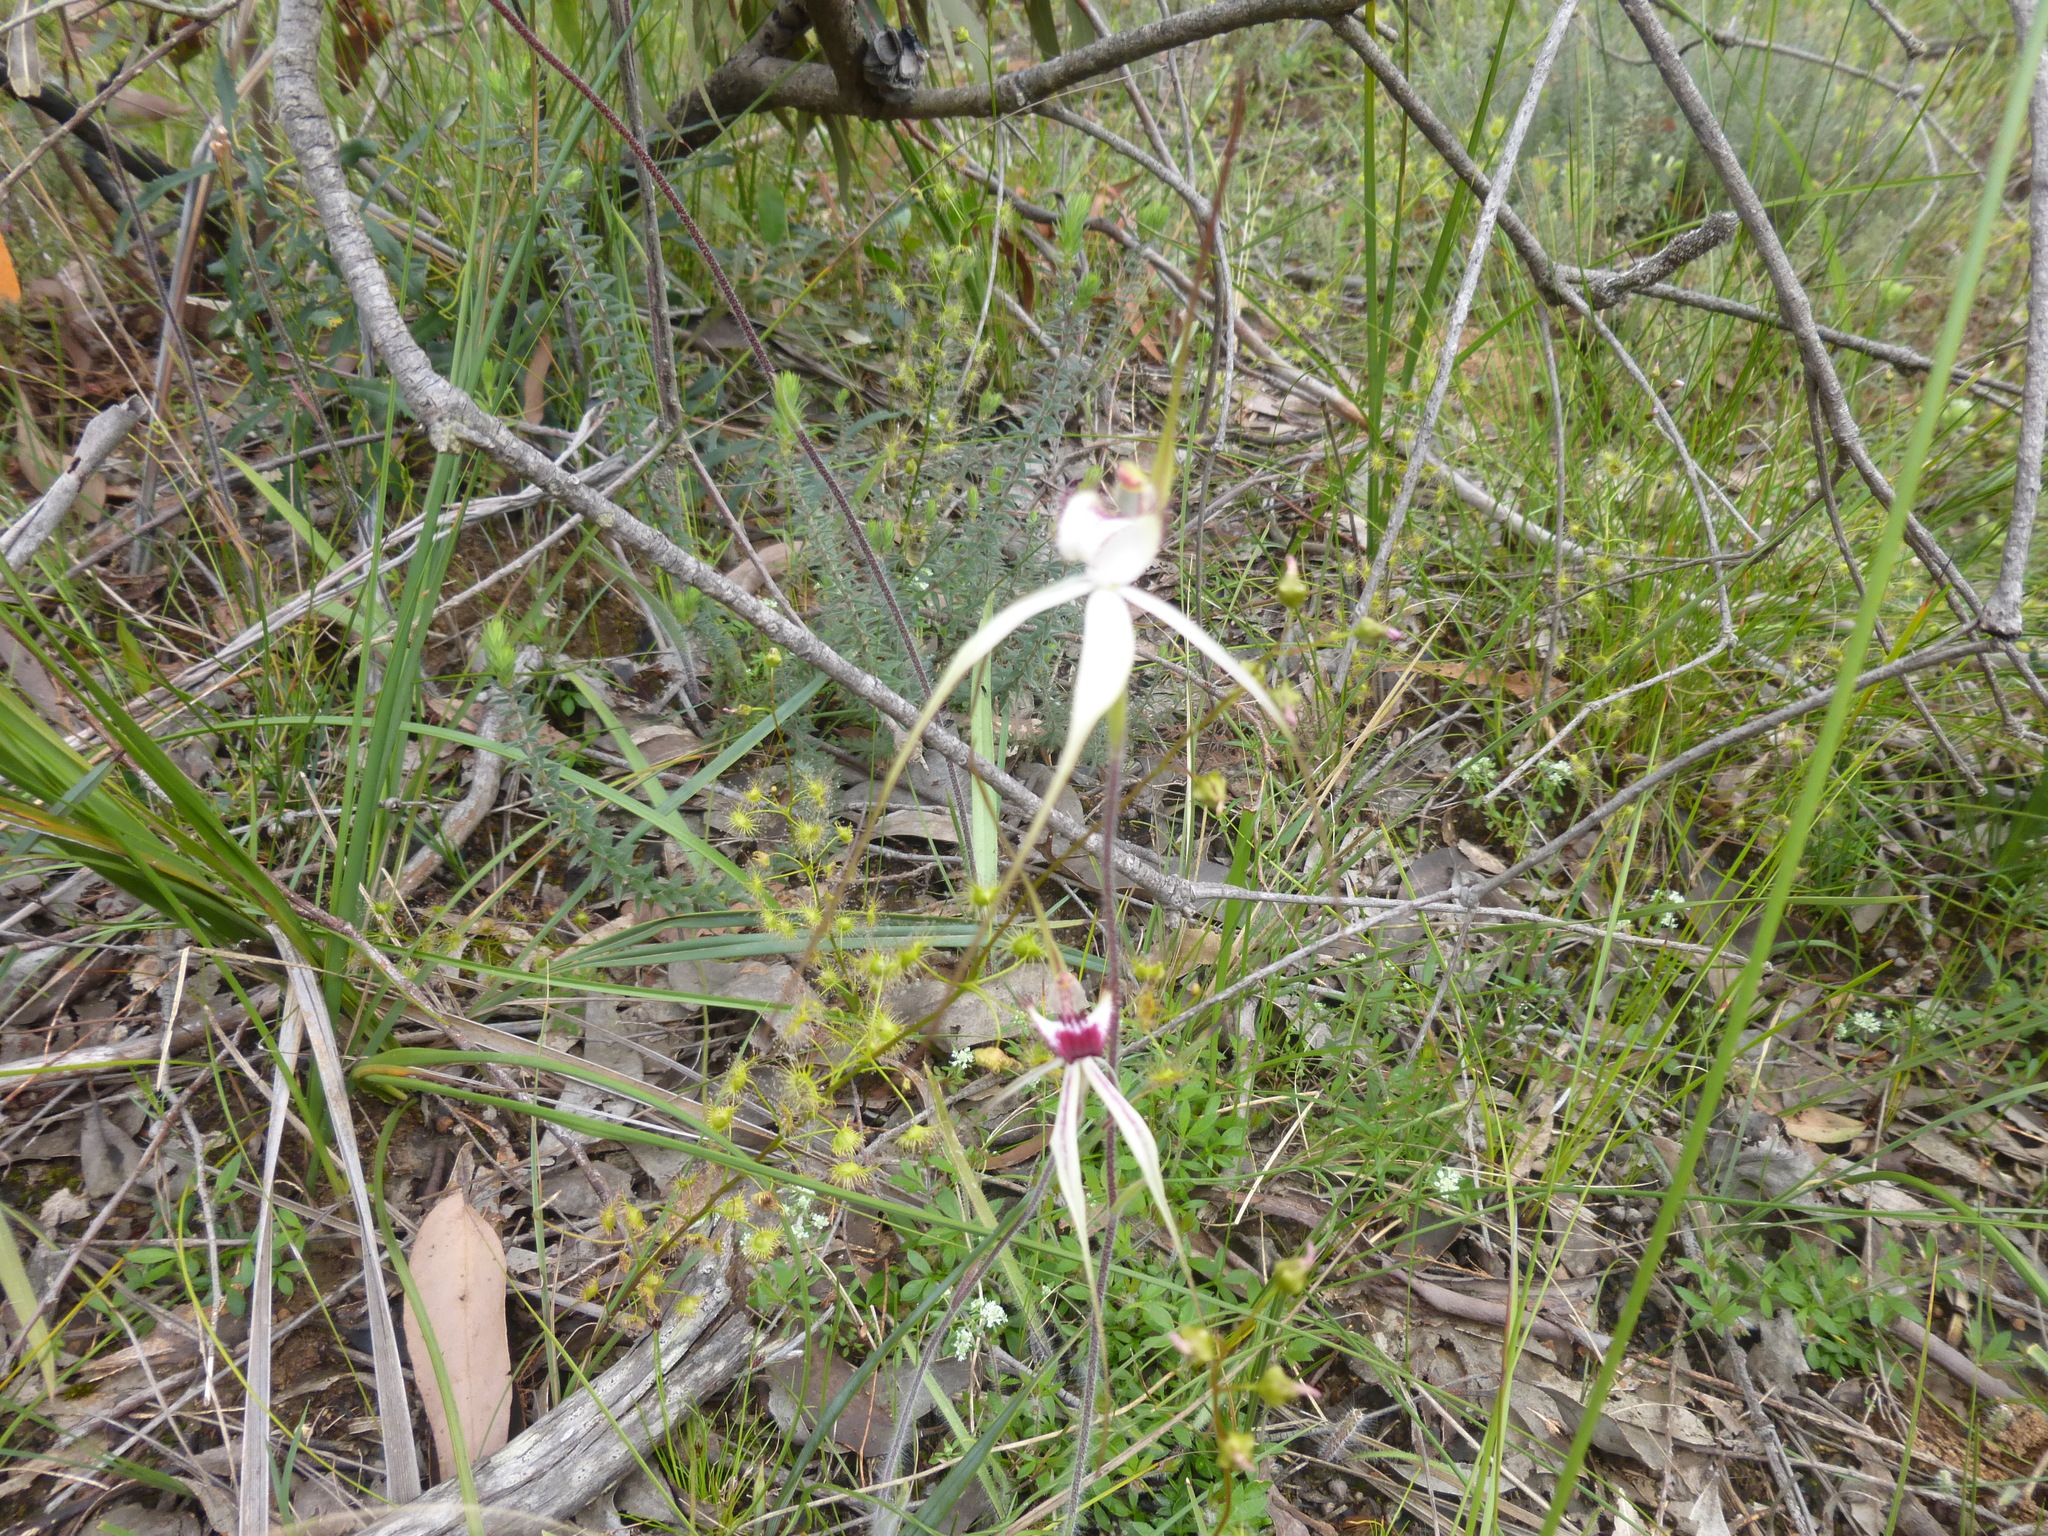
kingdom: Plantae
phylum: Tracheophyta
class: Liliopsida
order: Asparagales
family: Orchidaceae
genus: Caladenia
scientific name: Caladenia
